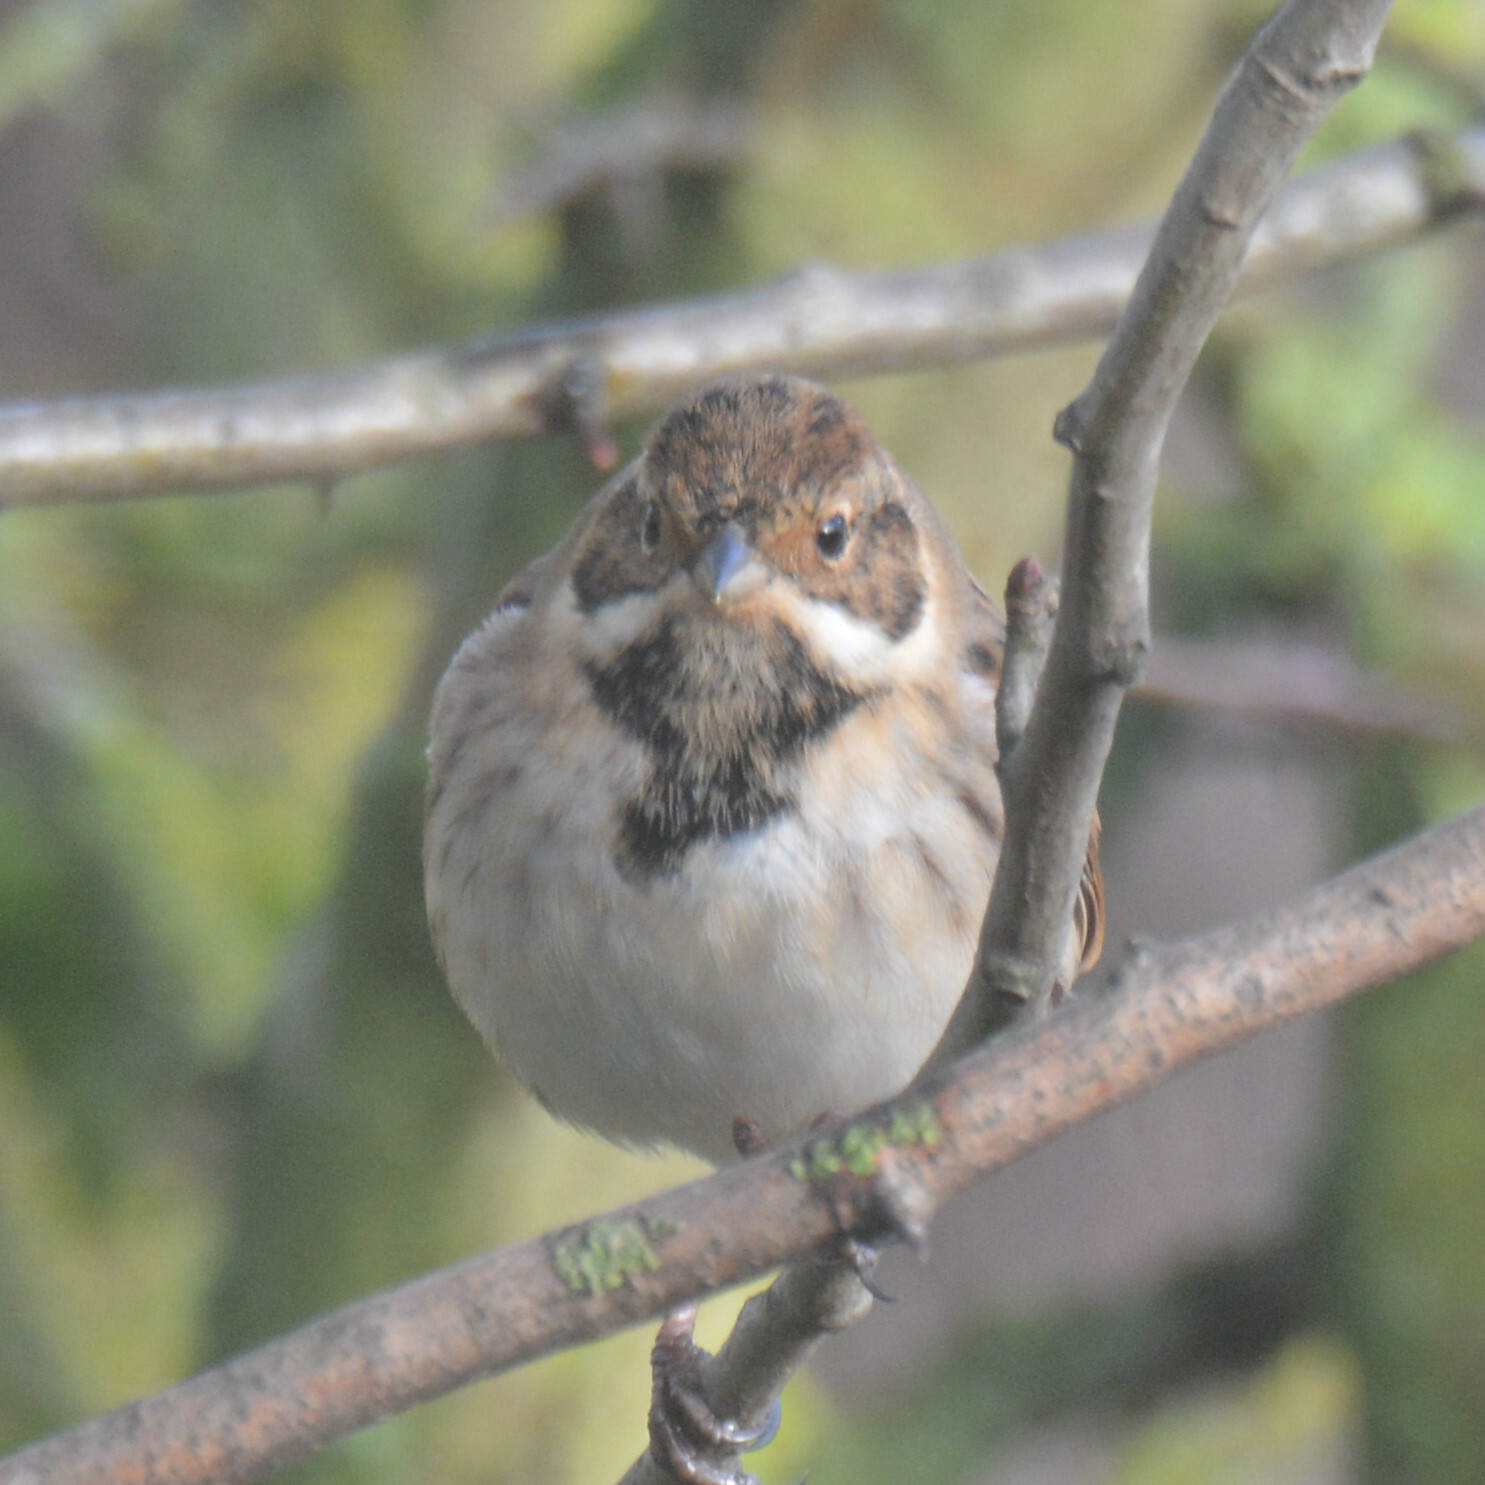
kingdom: Animalia
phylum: Chordata
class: Aves
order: Passeriformes
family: Emberizidae
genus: Emberiza
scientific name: Emberiza schoeniclus
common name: Reed bunting
